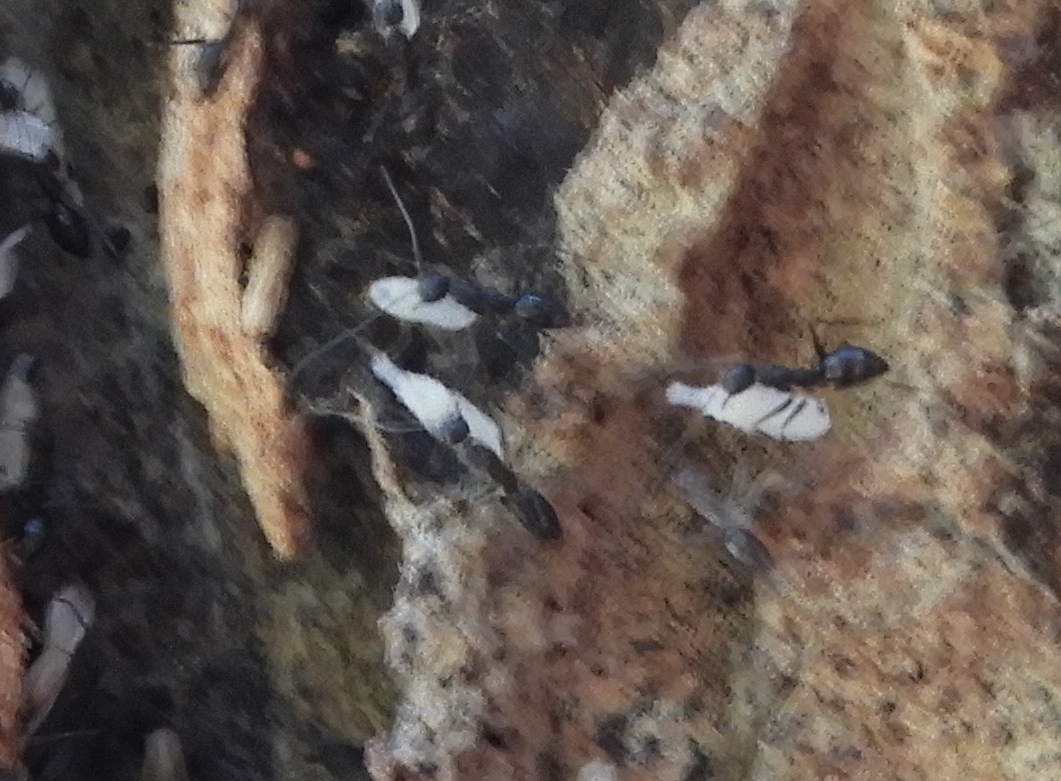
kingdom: Animalia
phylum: Arthropoda
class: Insecta
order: Hymenoptera
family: Formicidae
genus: Paratrechina
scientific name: Paratrechina longicornis
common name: Longhorned crazy ant
